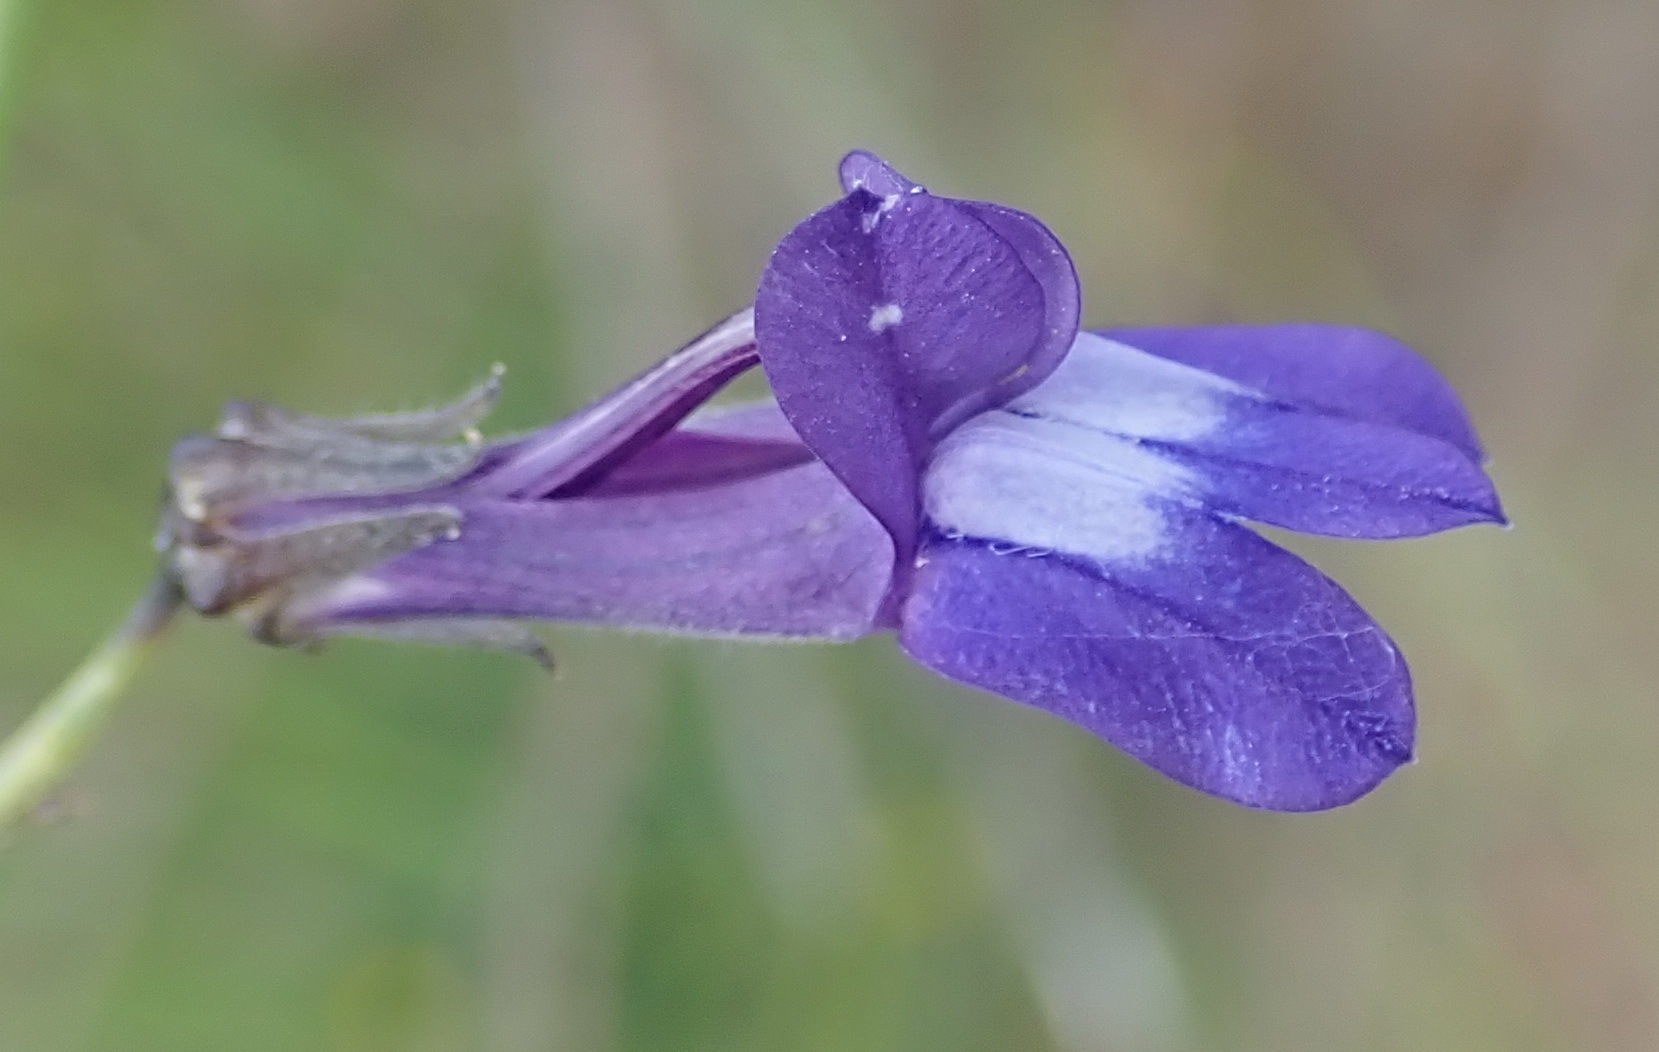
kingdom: Plantae
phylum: Tracheophyta
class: Magnoliopsida
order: Asterales
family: Campanulaceae
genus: Lobelia
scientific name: Lobelia linearis
